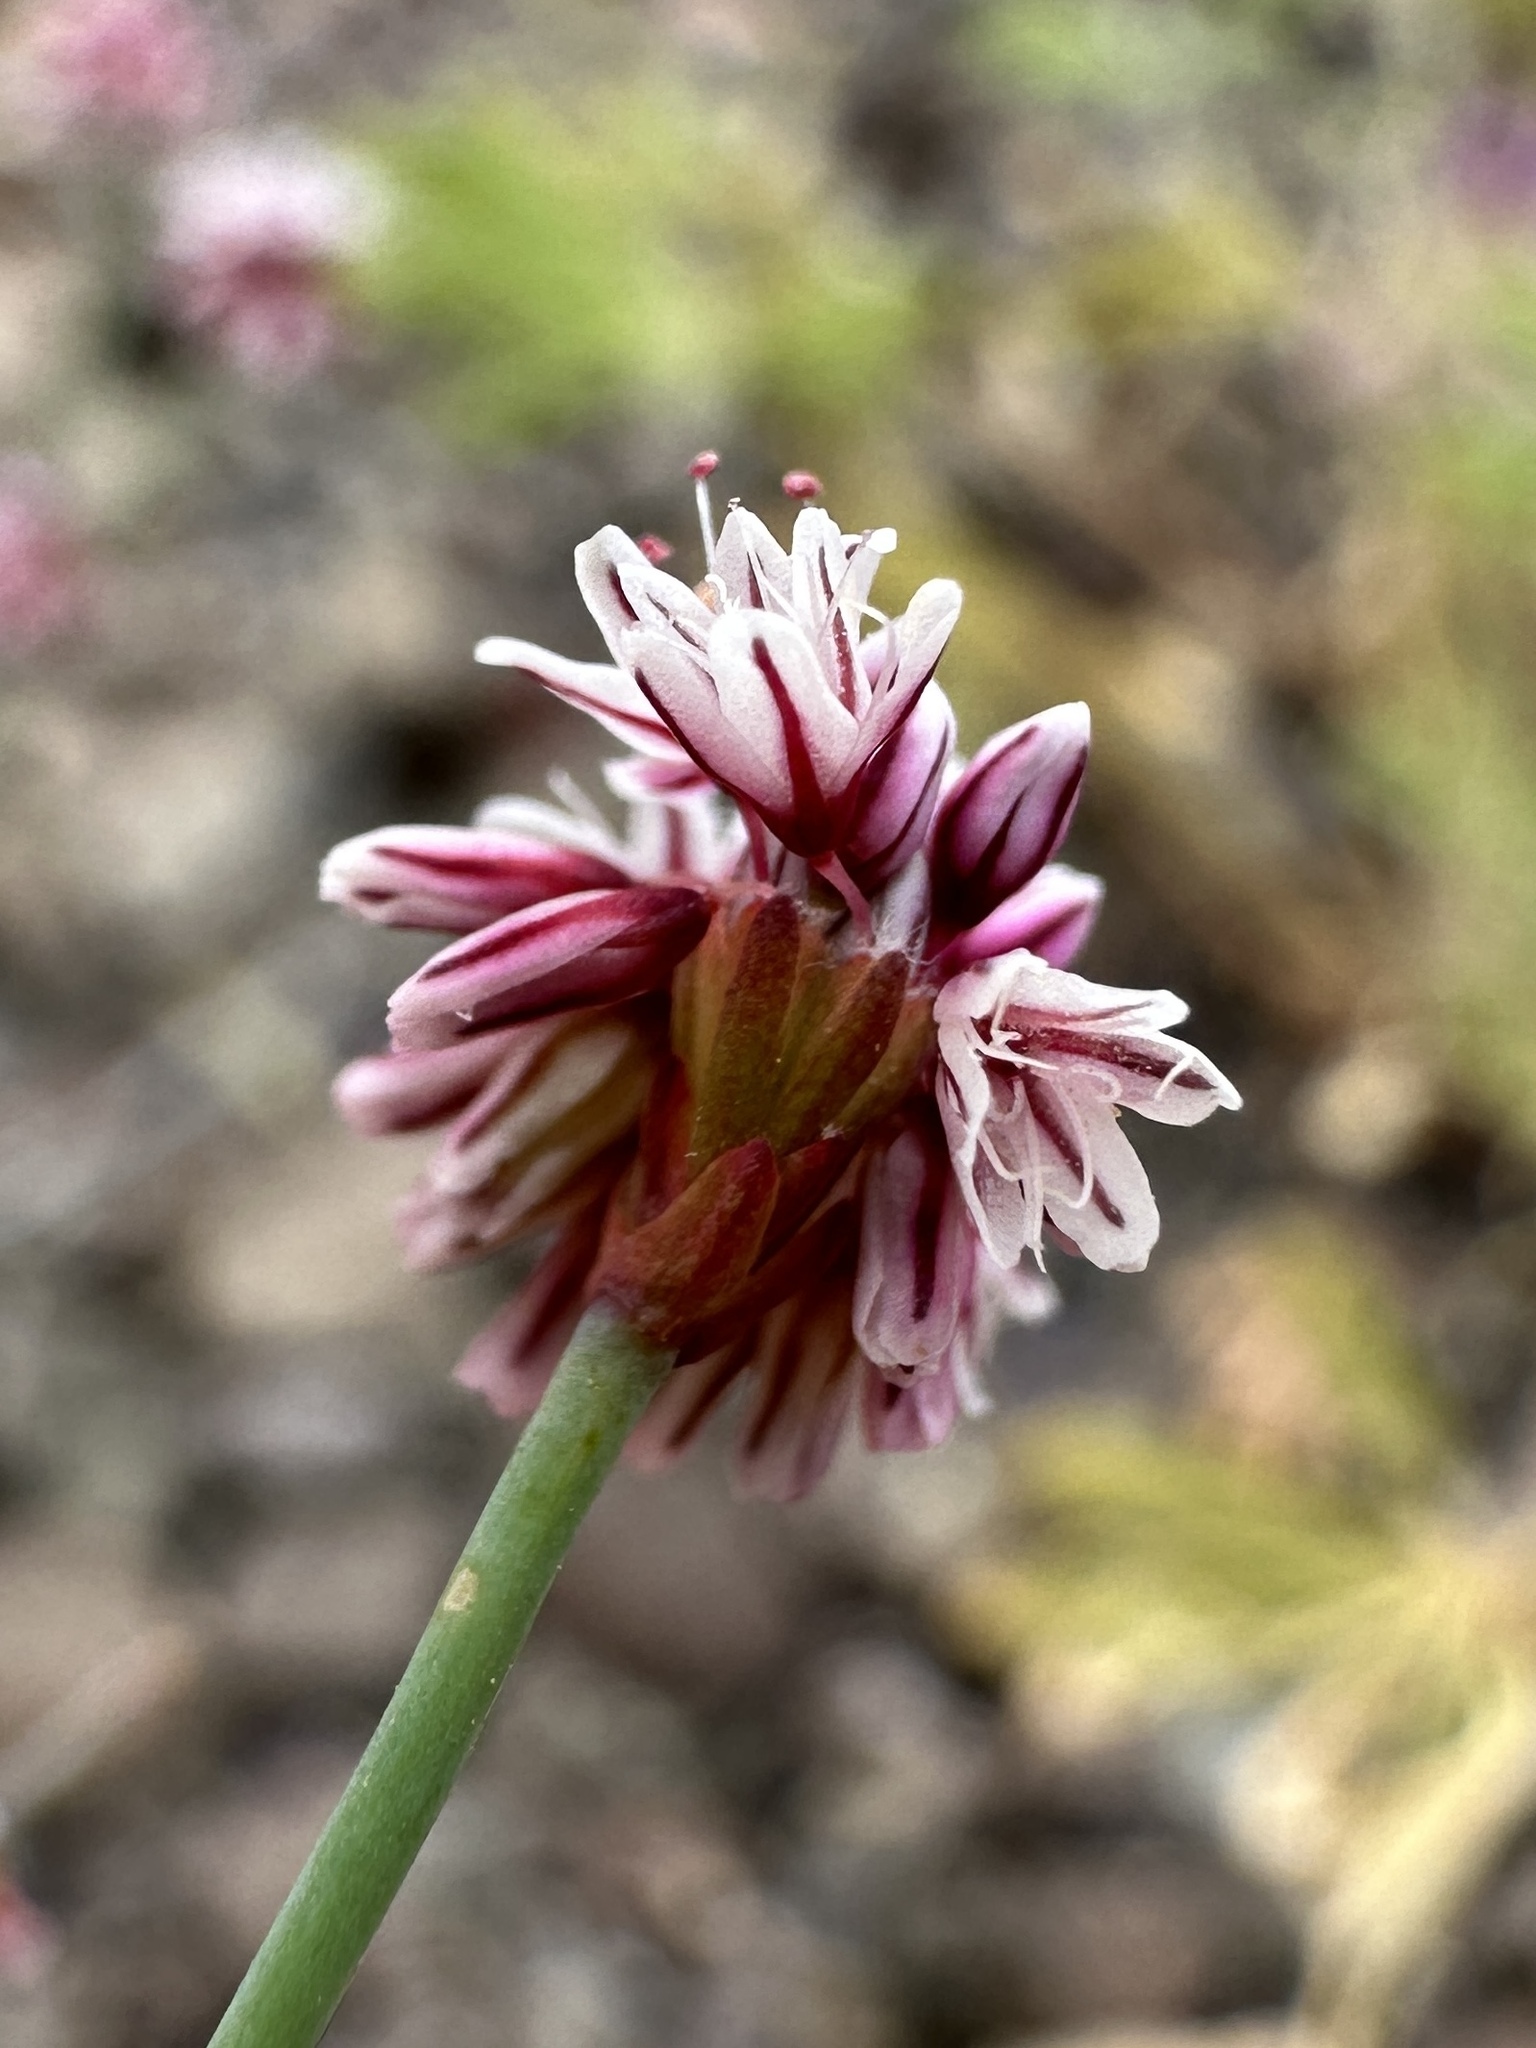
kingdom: Plantae
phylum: Tracheophyta
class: Magnoliopsida
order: Caryophyllales
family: Polygonaceae
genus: Eriogonum
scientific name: Eriogonum covilleanum
